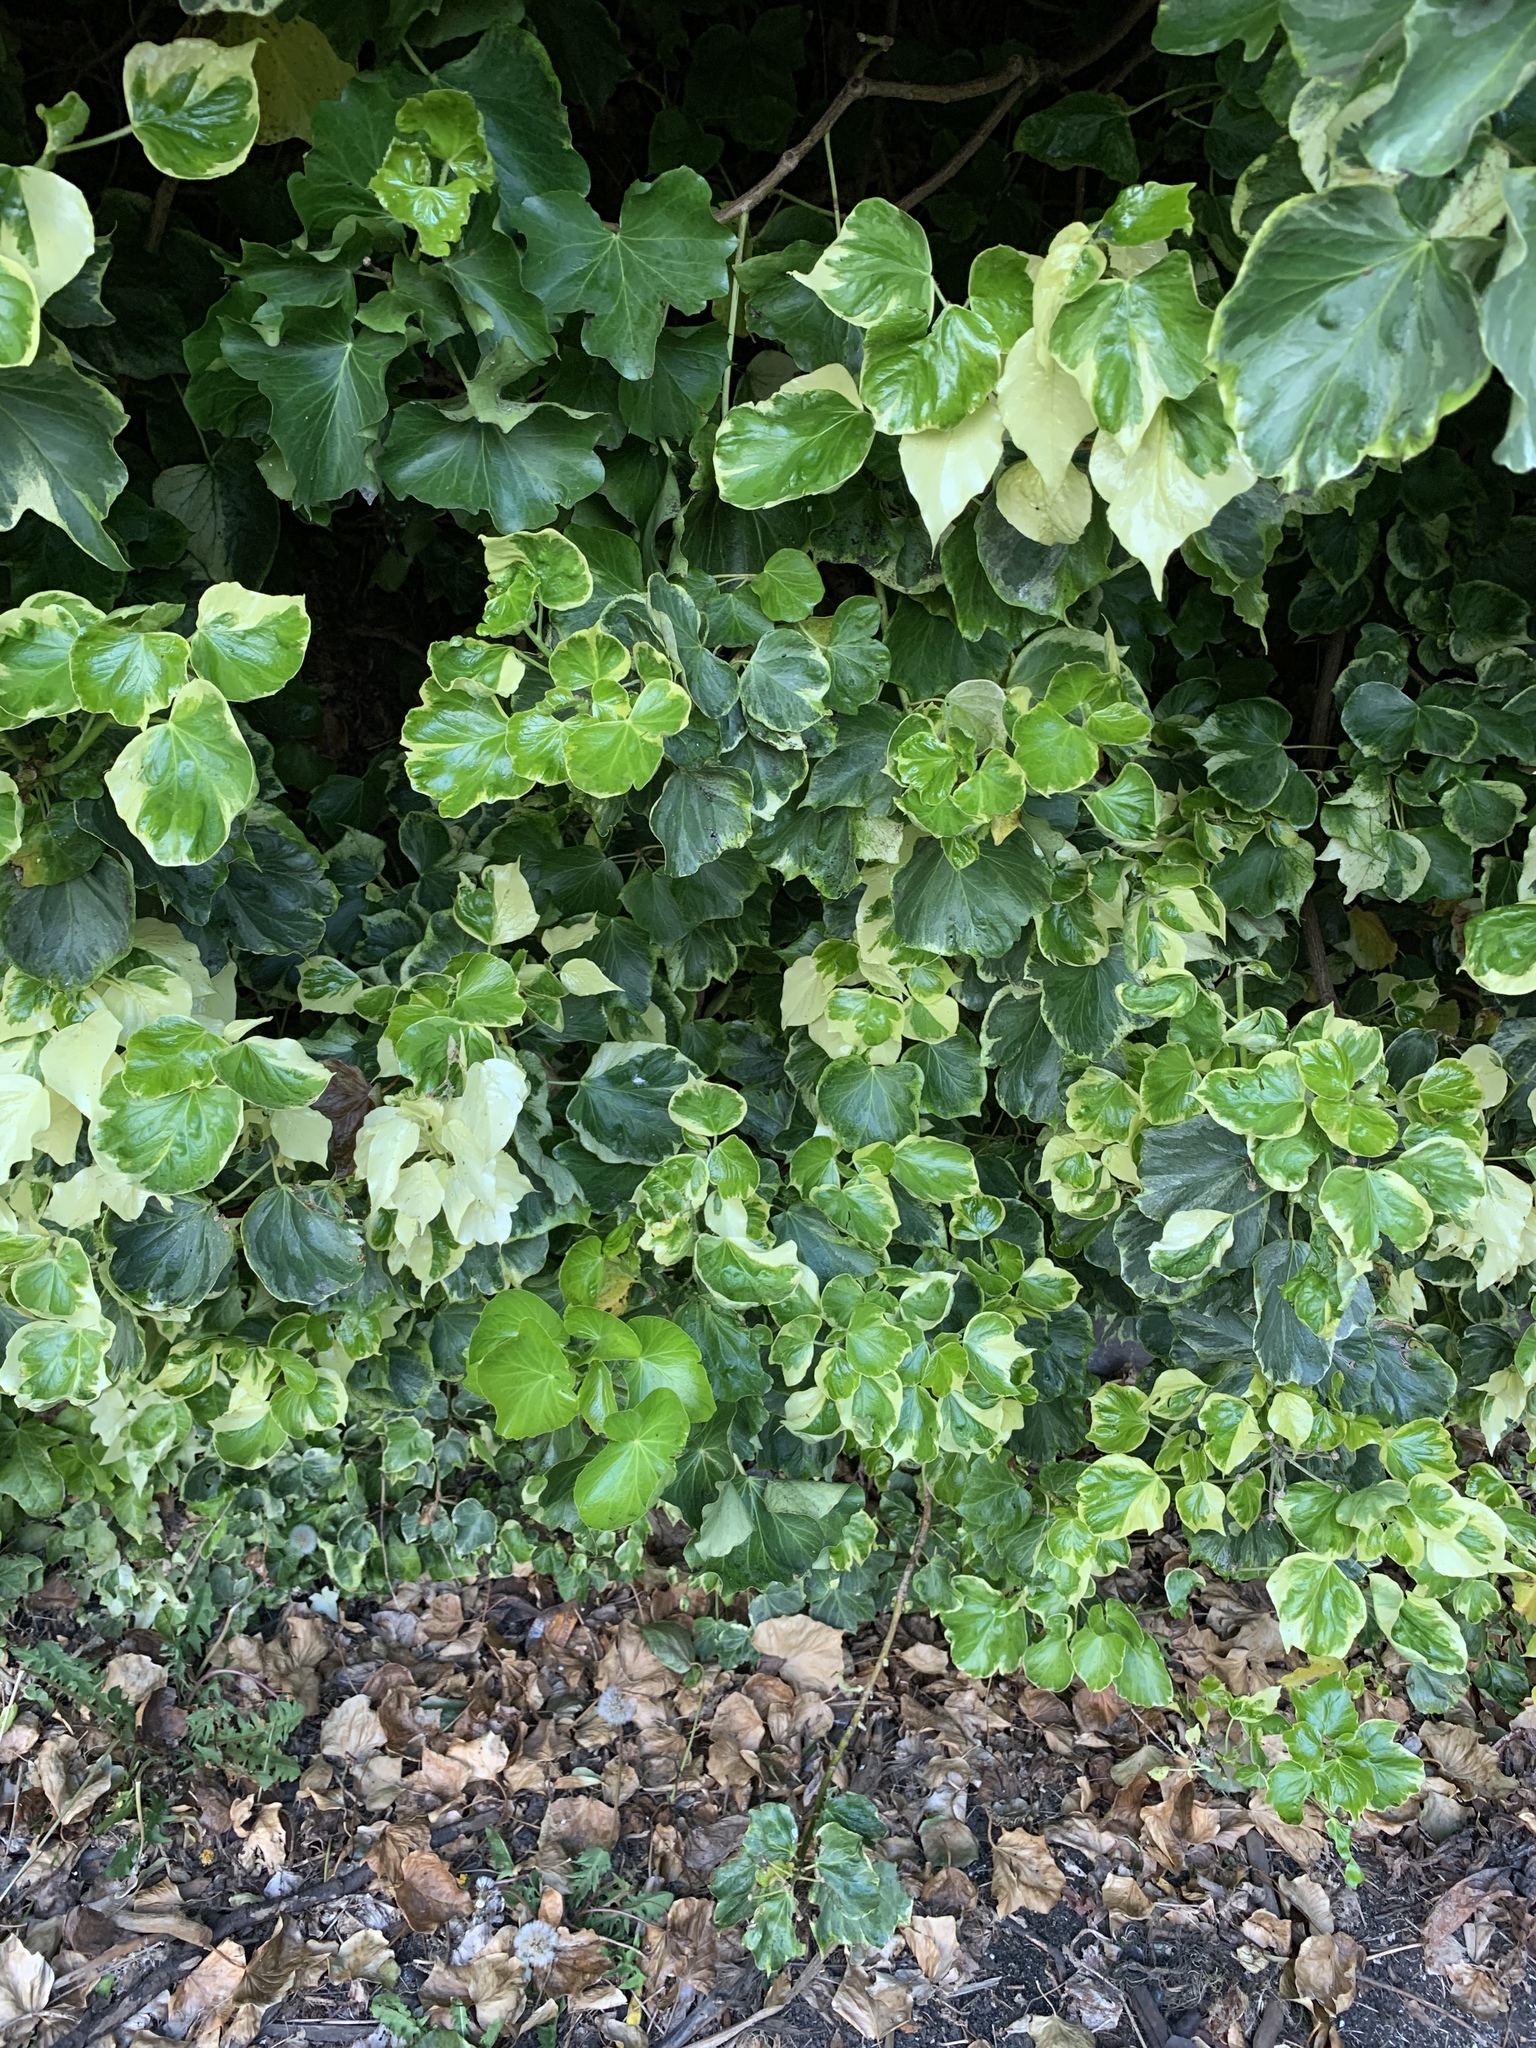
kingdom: Plantae
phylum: Tracheophyta
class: Magnoliopsida
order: Apiales
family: Araliaceae
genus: Hedera
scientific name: Hedera helix
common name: Ivy
